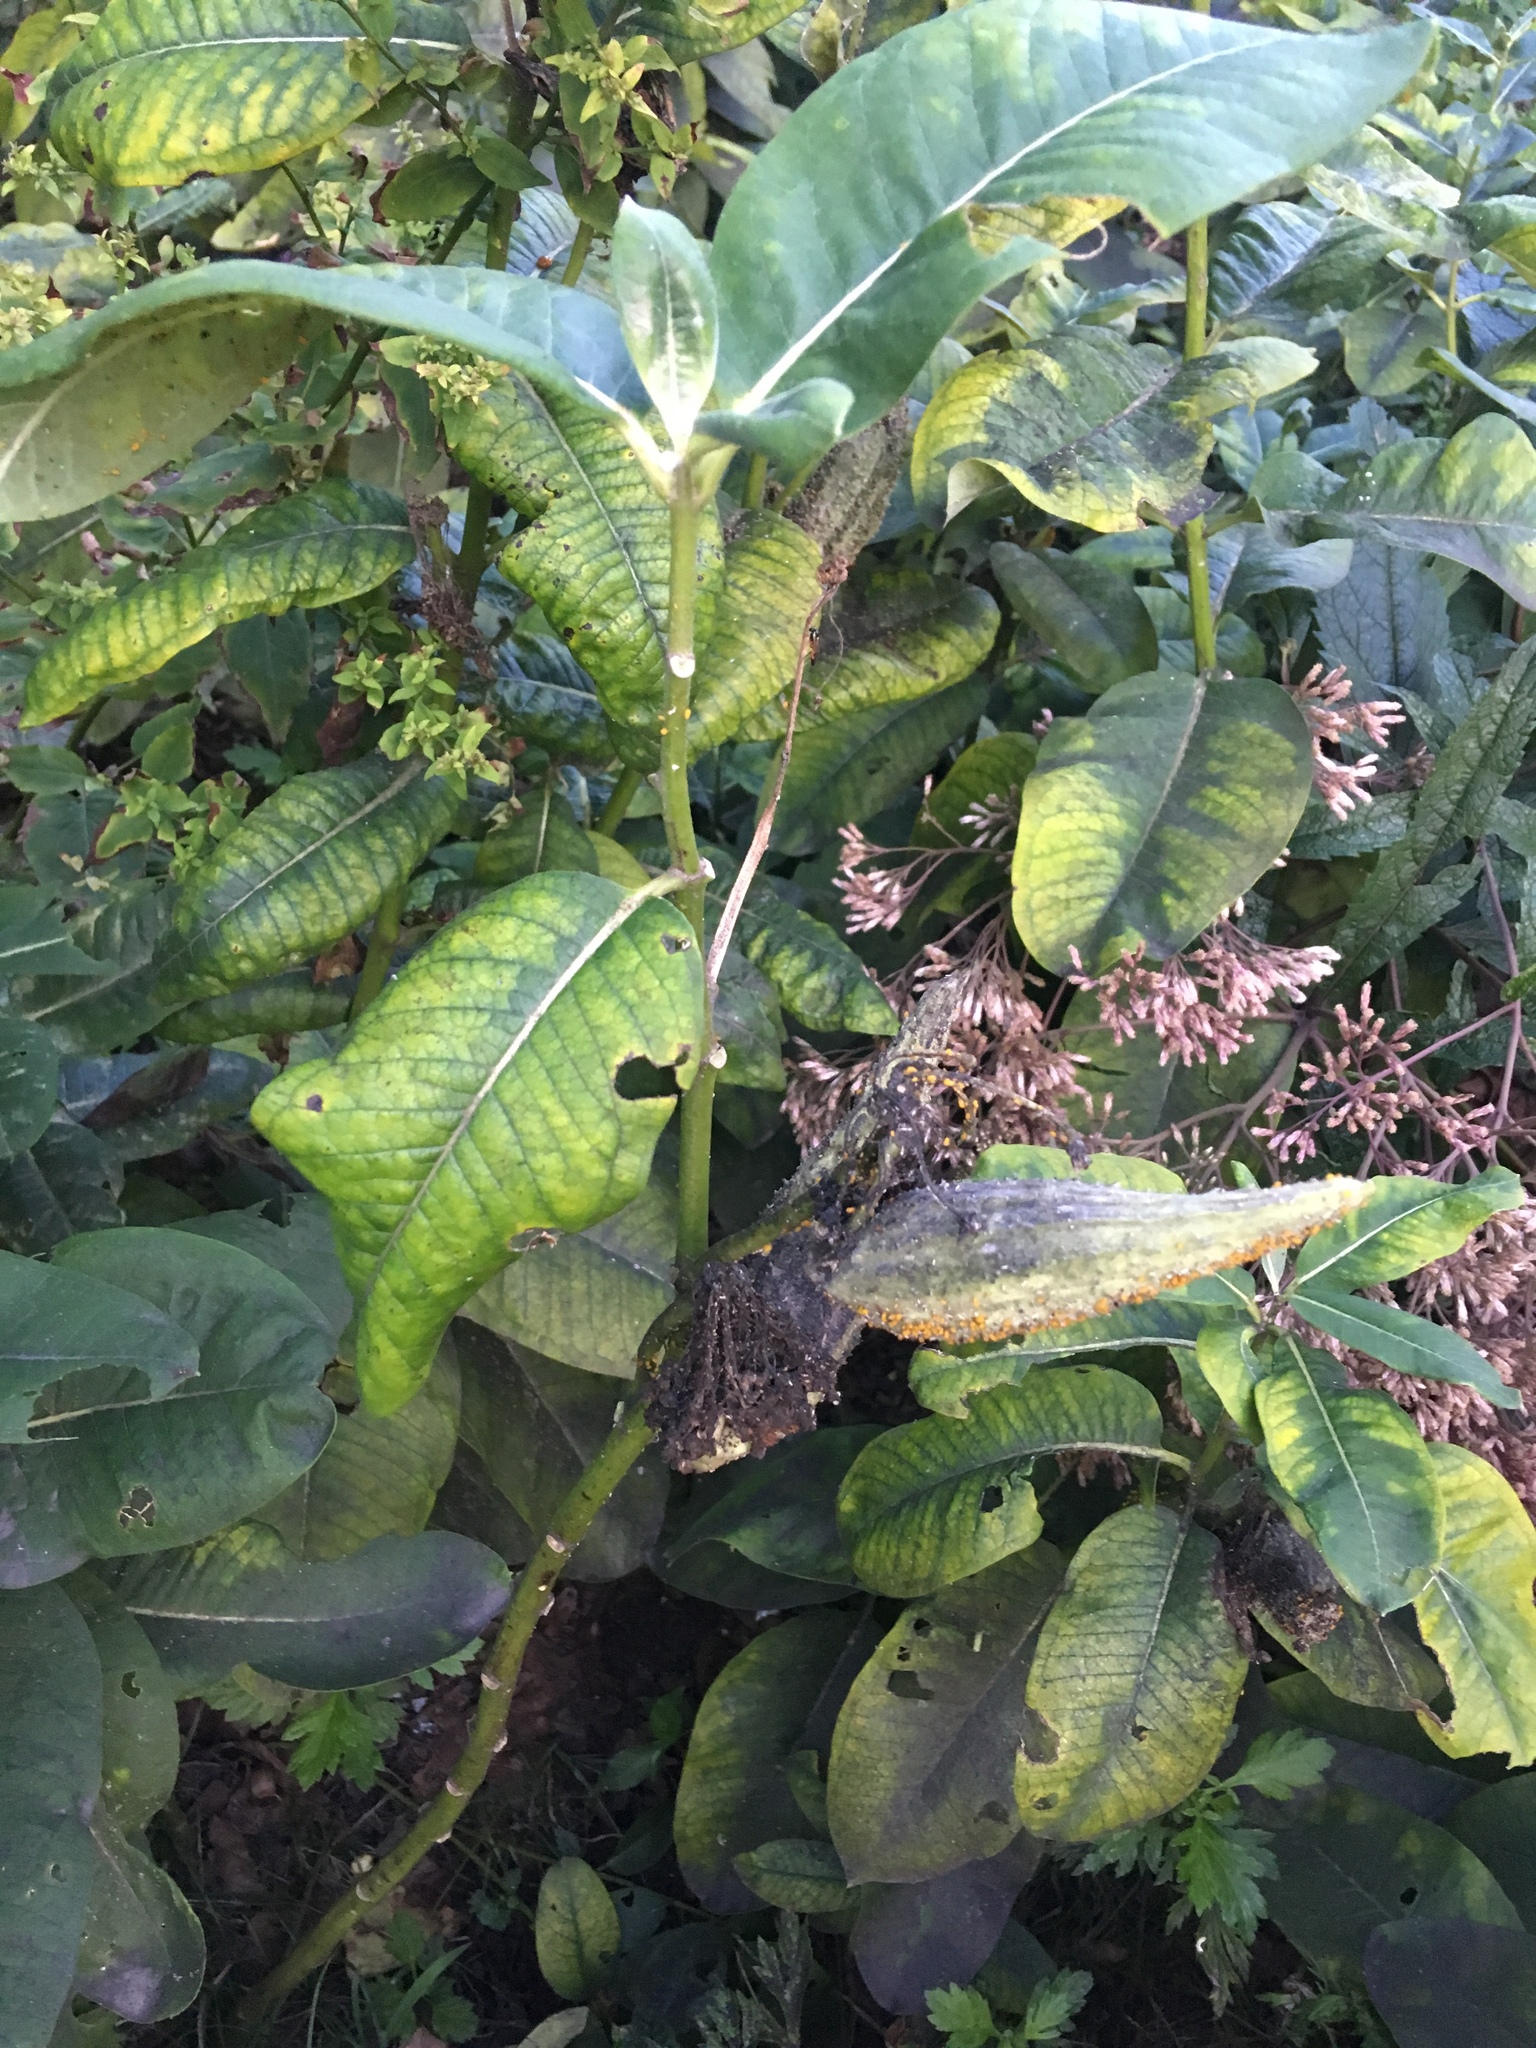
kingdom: Plantae
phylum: Tracheophyta
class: Magnoliopsida
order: Gentianales
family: Apocynaceae
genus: Asclepias
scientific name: Asclepias syriaca
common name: Common milkweed
